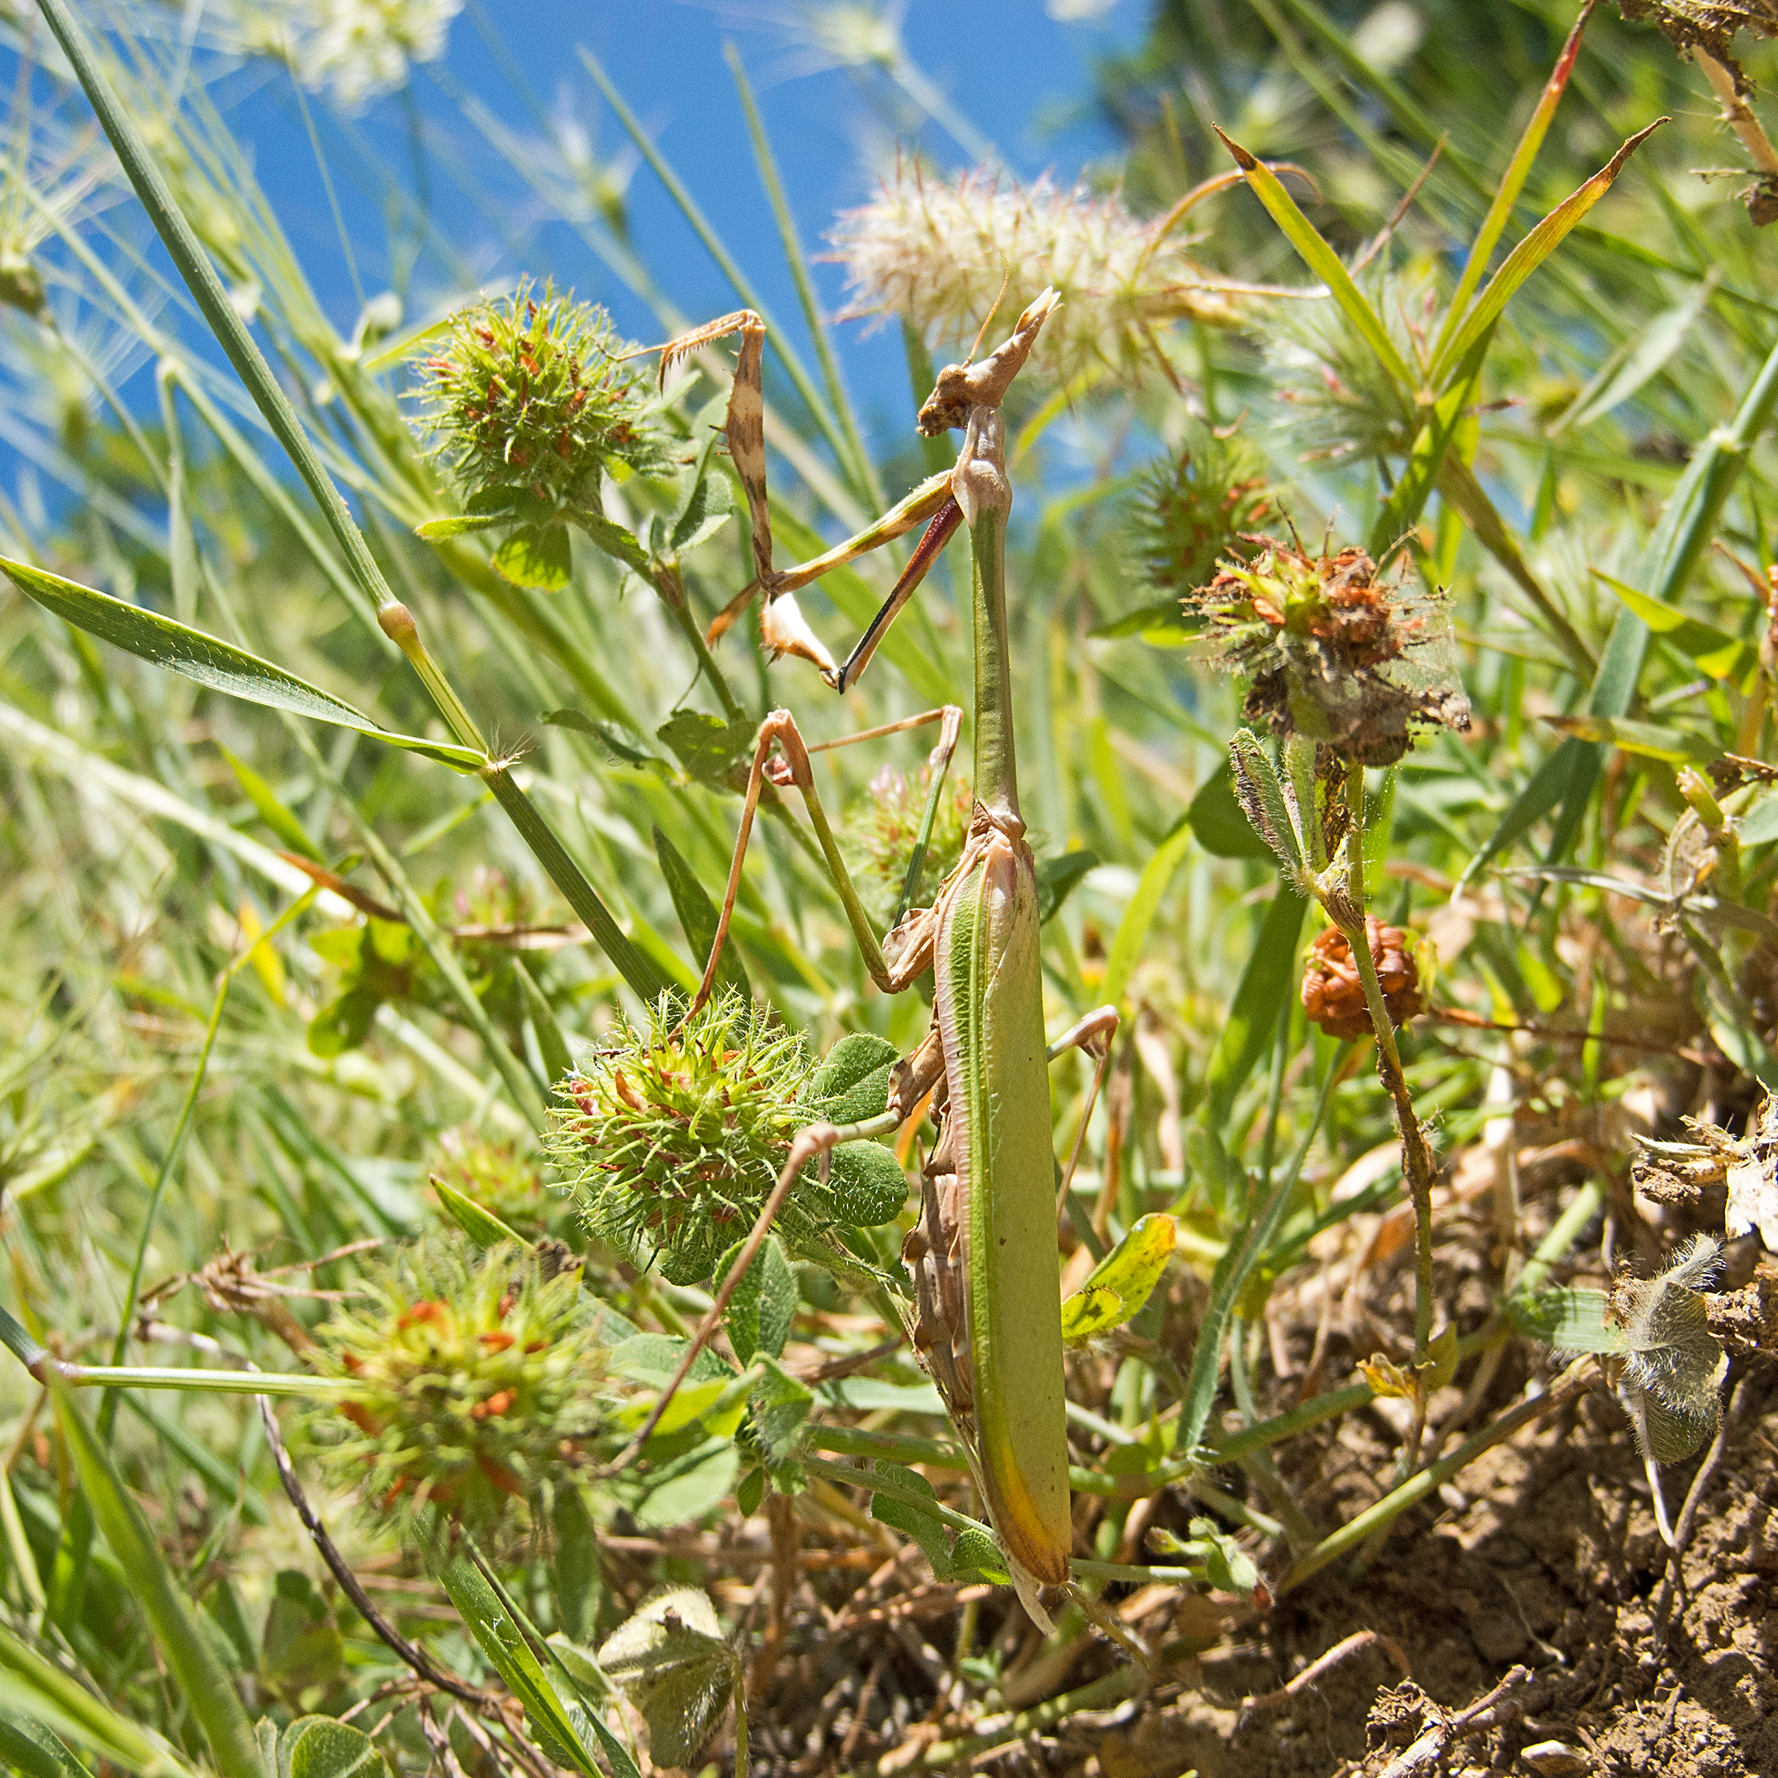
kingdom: Animalia
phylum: Arthropoda
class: Insecta
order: Mantodea
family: Empusidae
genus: Empusa
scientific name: Empusa fasciata
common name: Devil's mare
